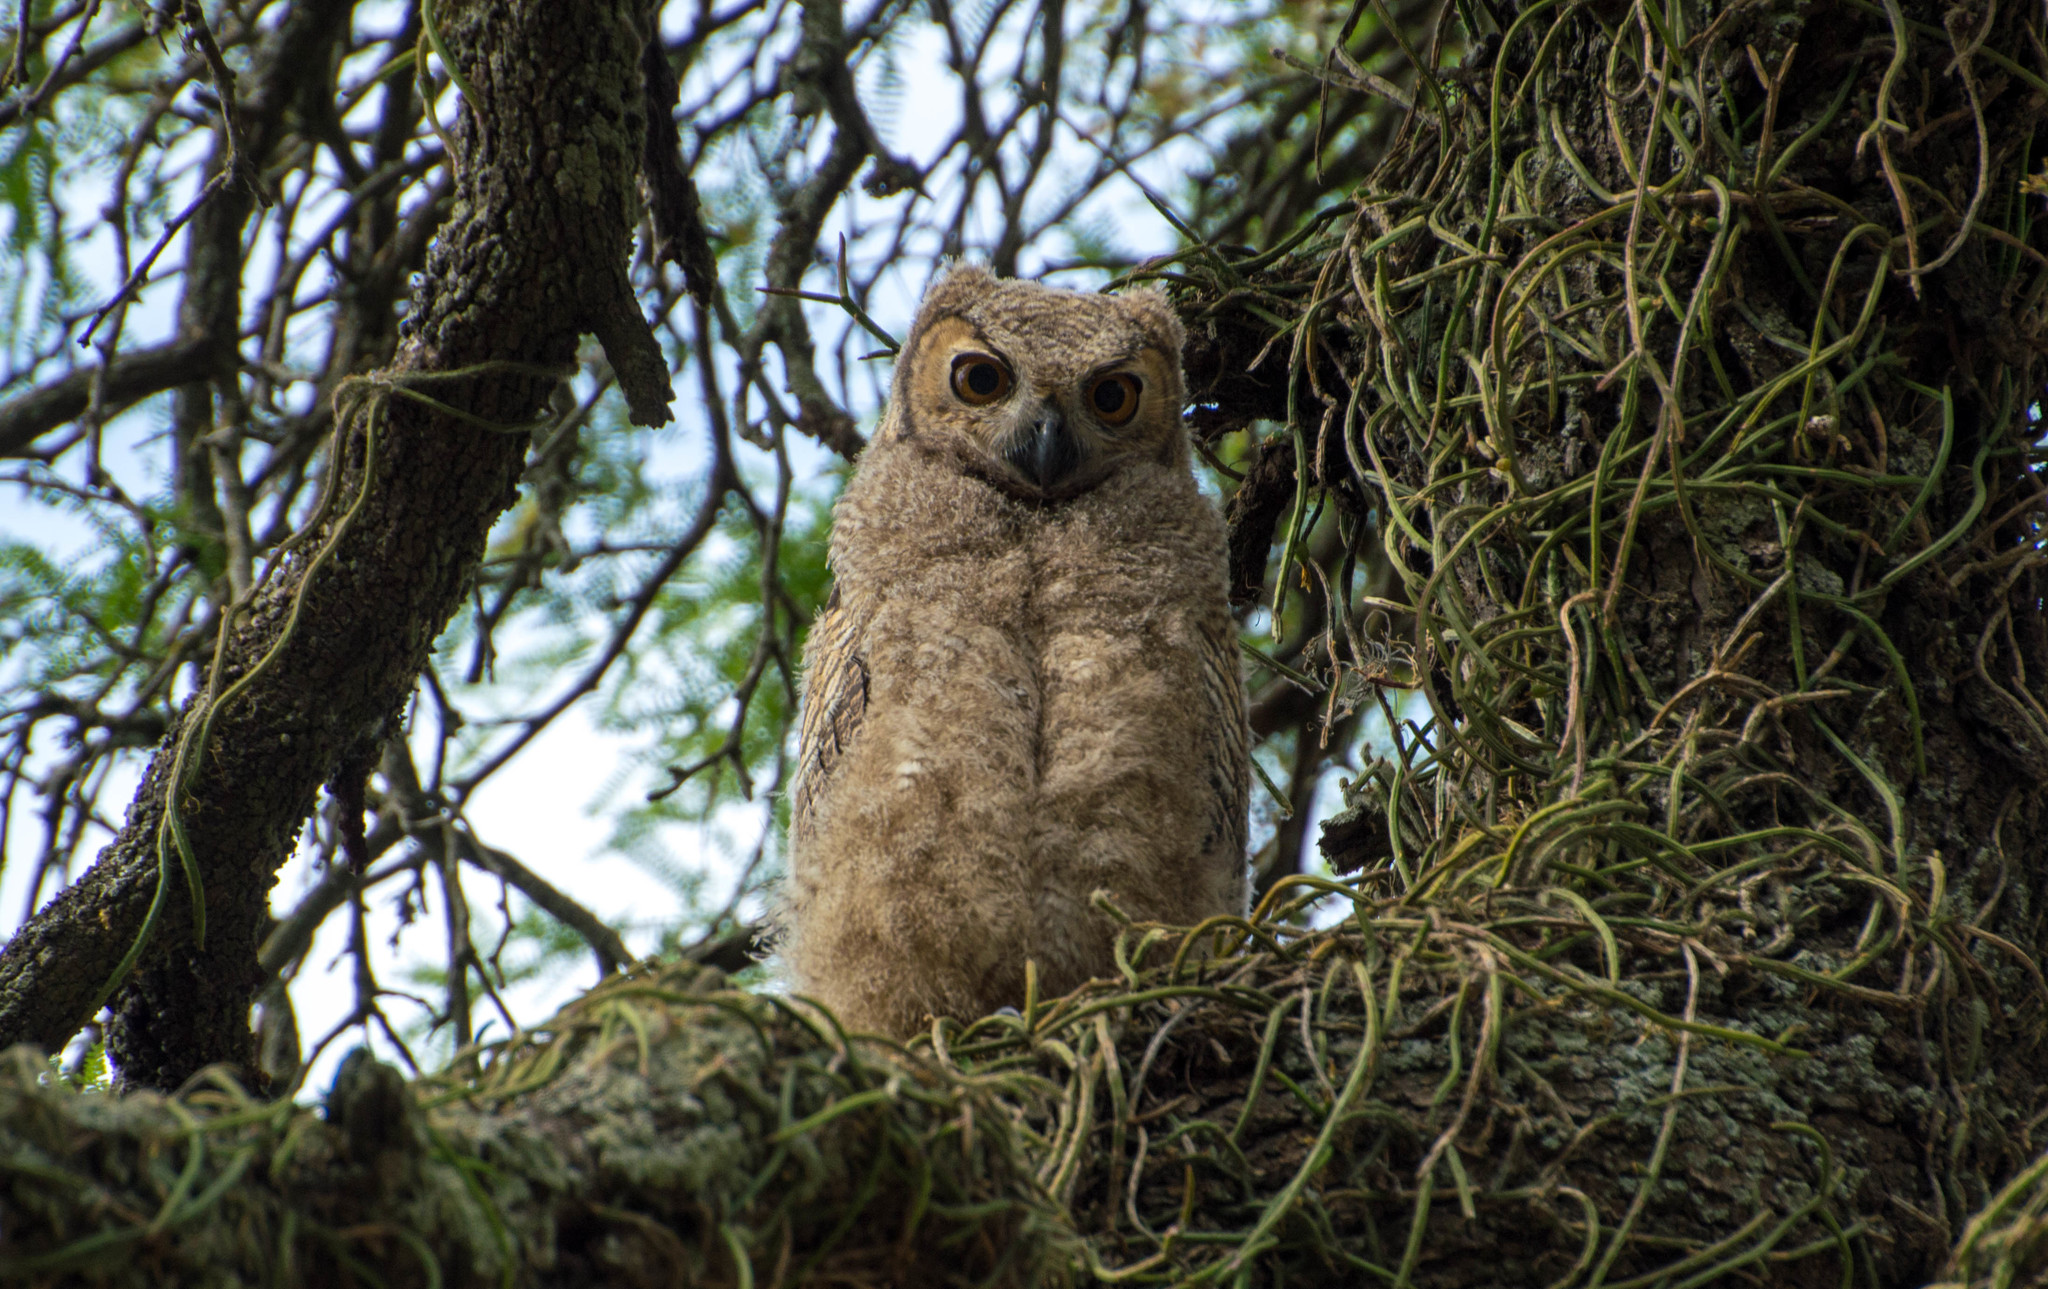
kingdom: Animalia
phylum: Chordata
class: Aves
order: Strigiformes
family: Strigidae
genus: Bubo
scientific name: Bubo virginianus
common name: Great horned owl
